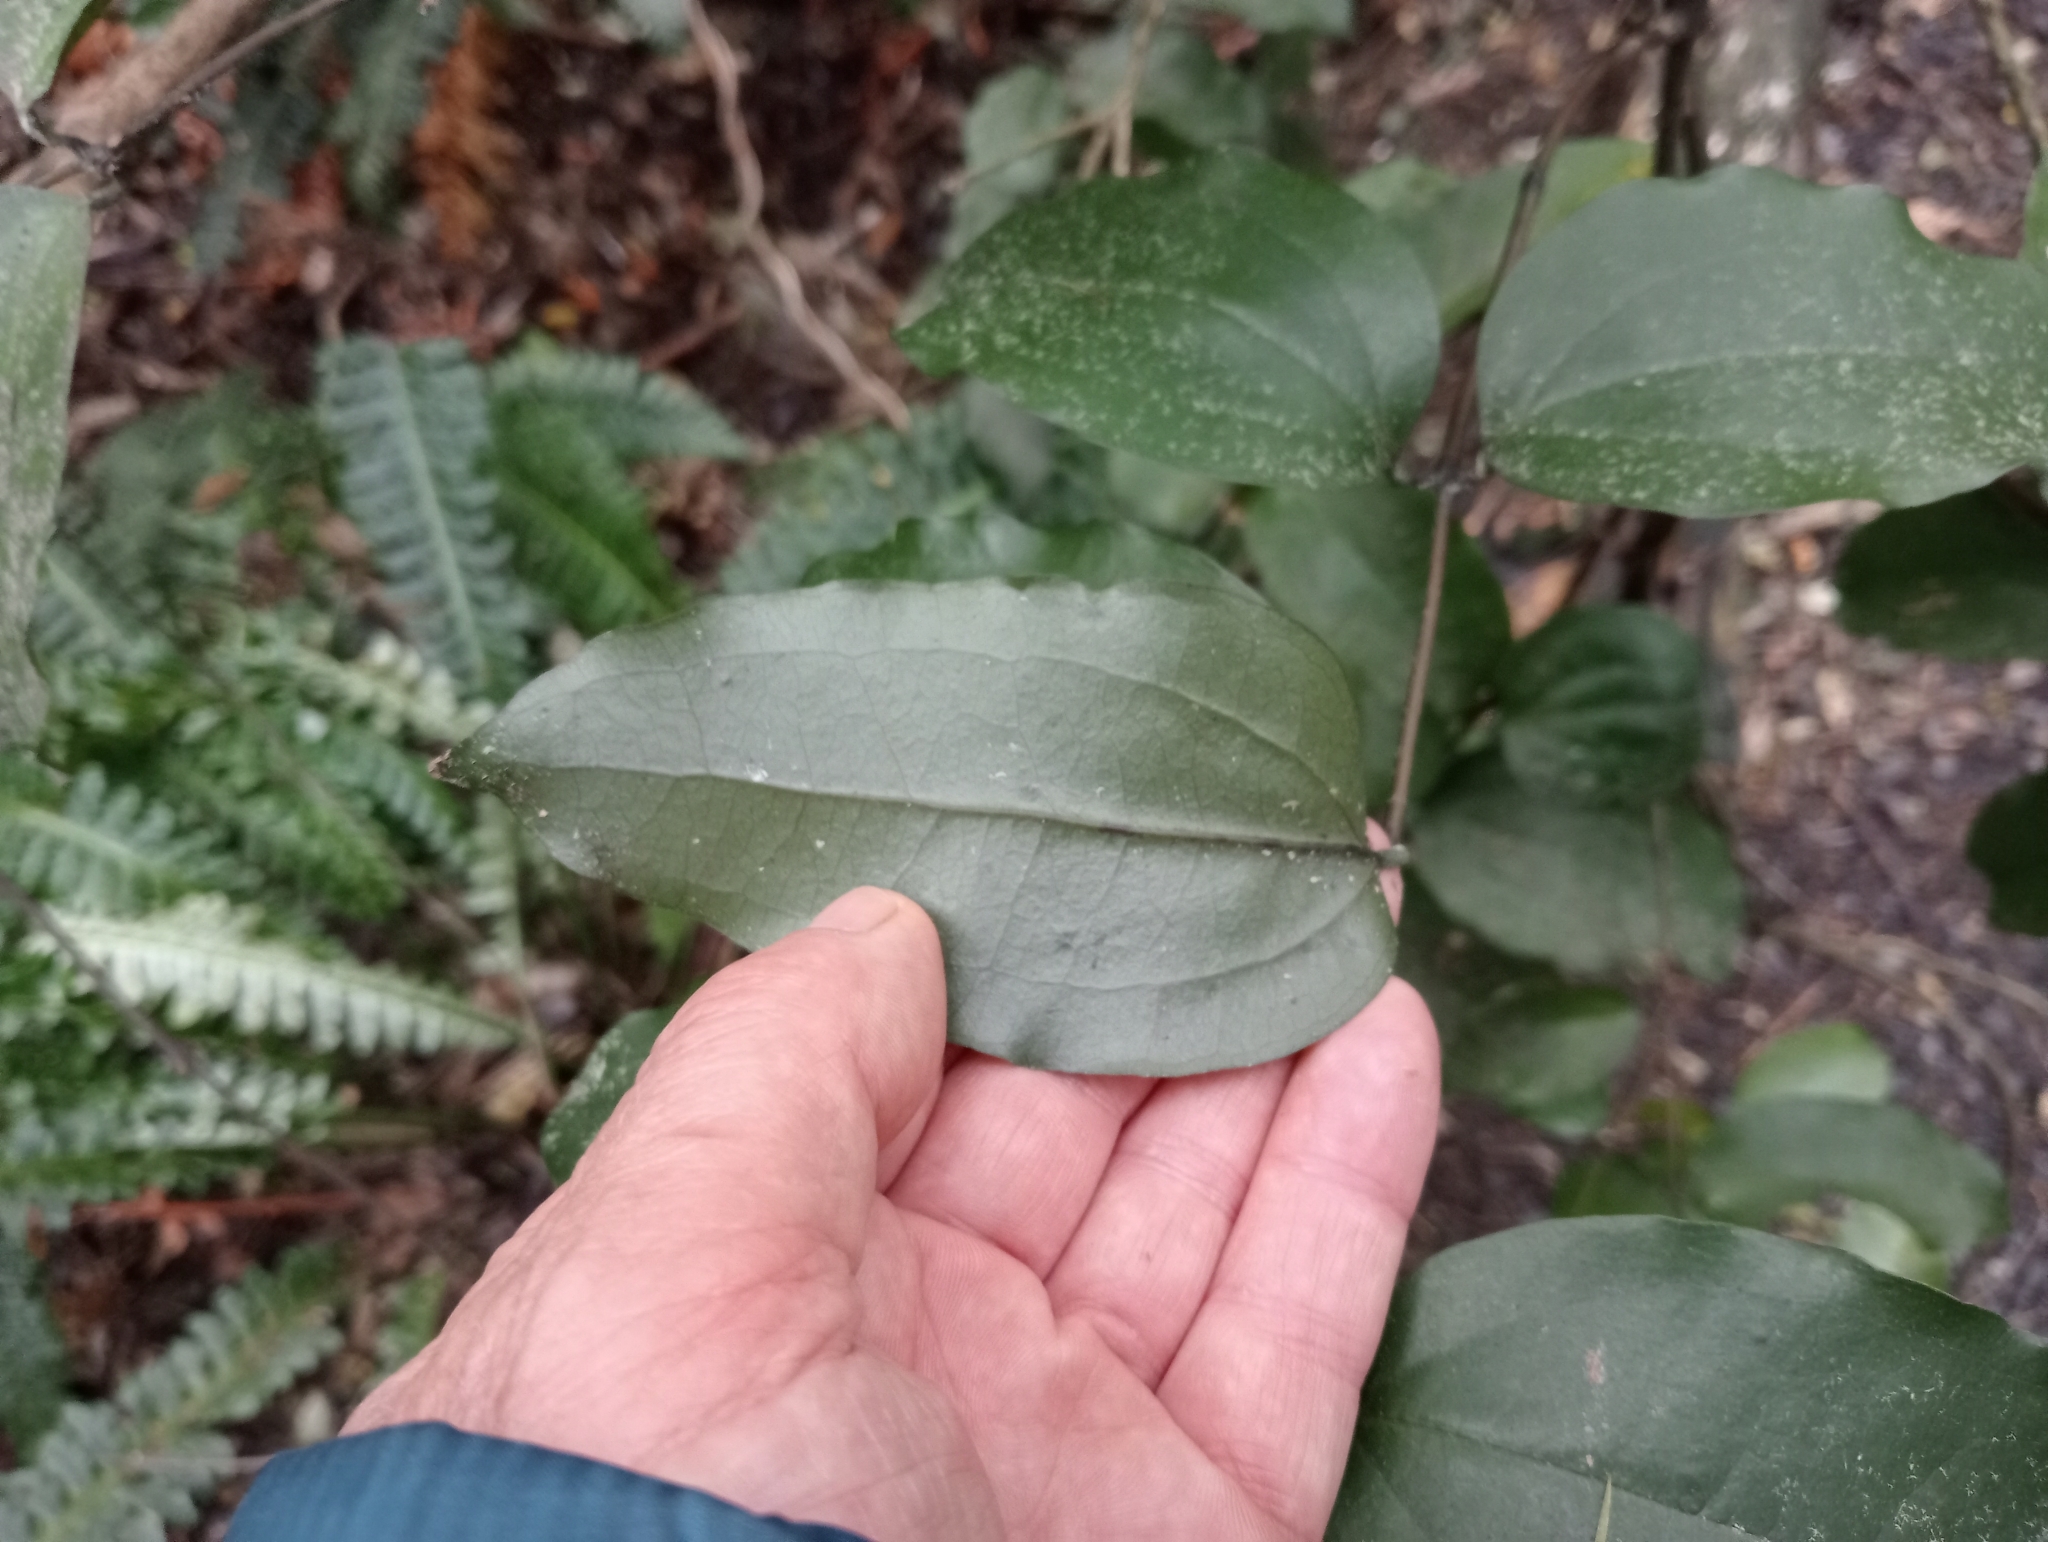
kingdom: Plantae
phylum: Tracheophyta
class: Liliopsida
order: Liliales
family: Ripogonaceae
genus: Ripogonum
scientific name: Ripogonum scandens
